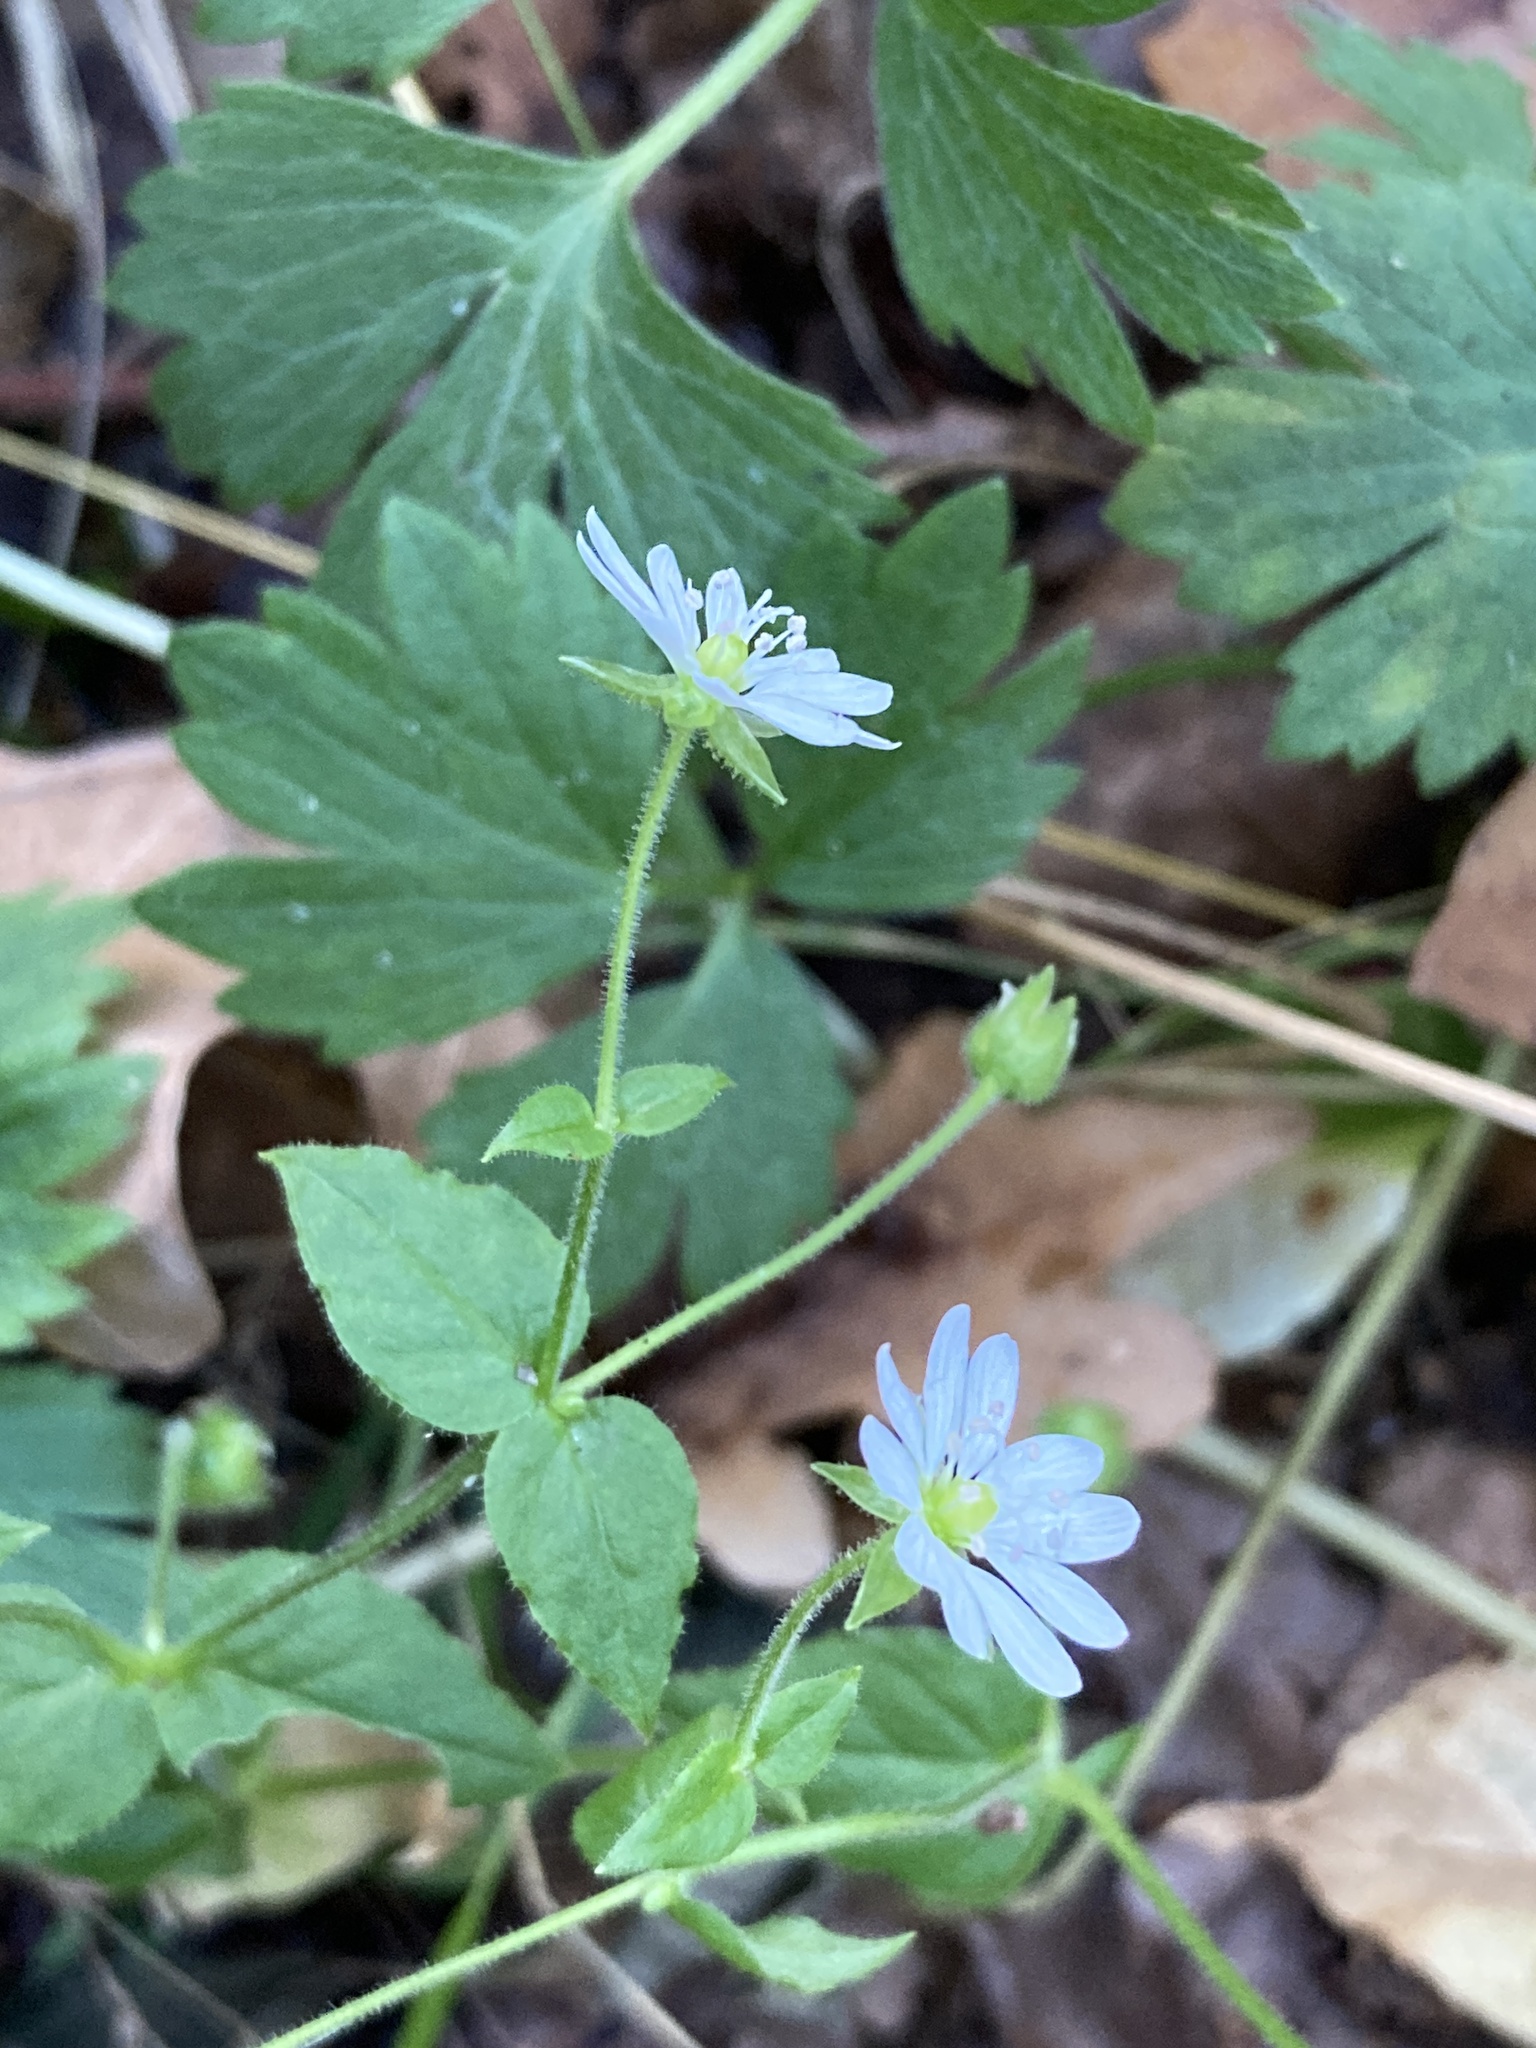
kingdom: Plantae
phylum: Tracheophyta
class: Magnoliopsida
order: Caryophyllales
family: Caryophyllaceae
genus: Stellaria
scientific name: Stellaria aquatica
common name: Water chickweed
